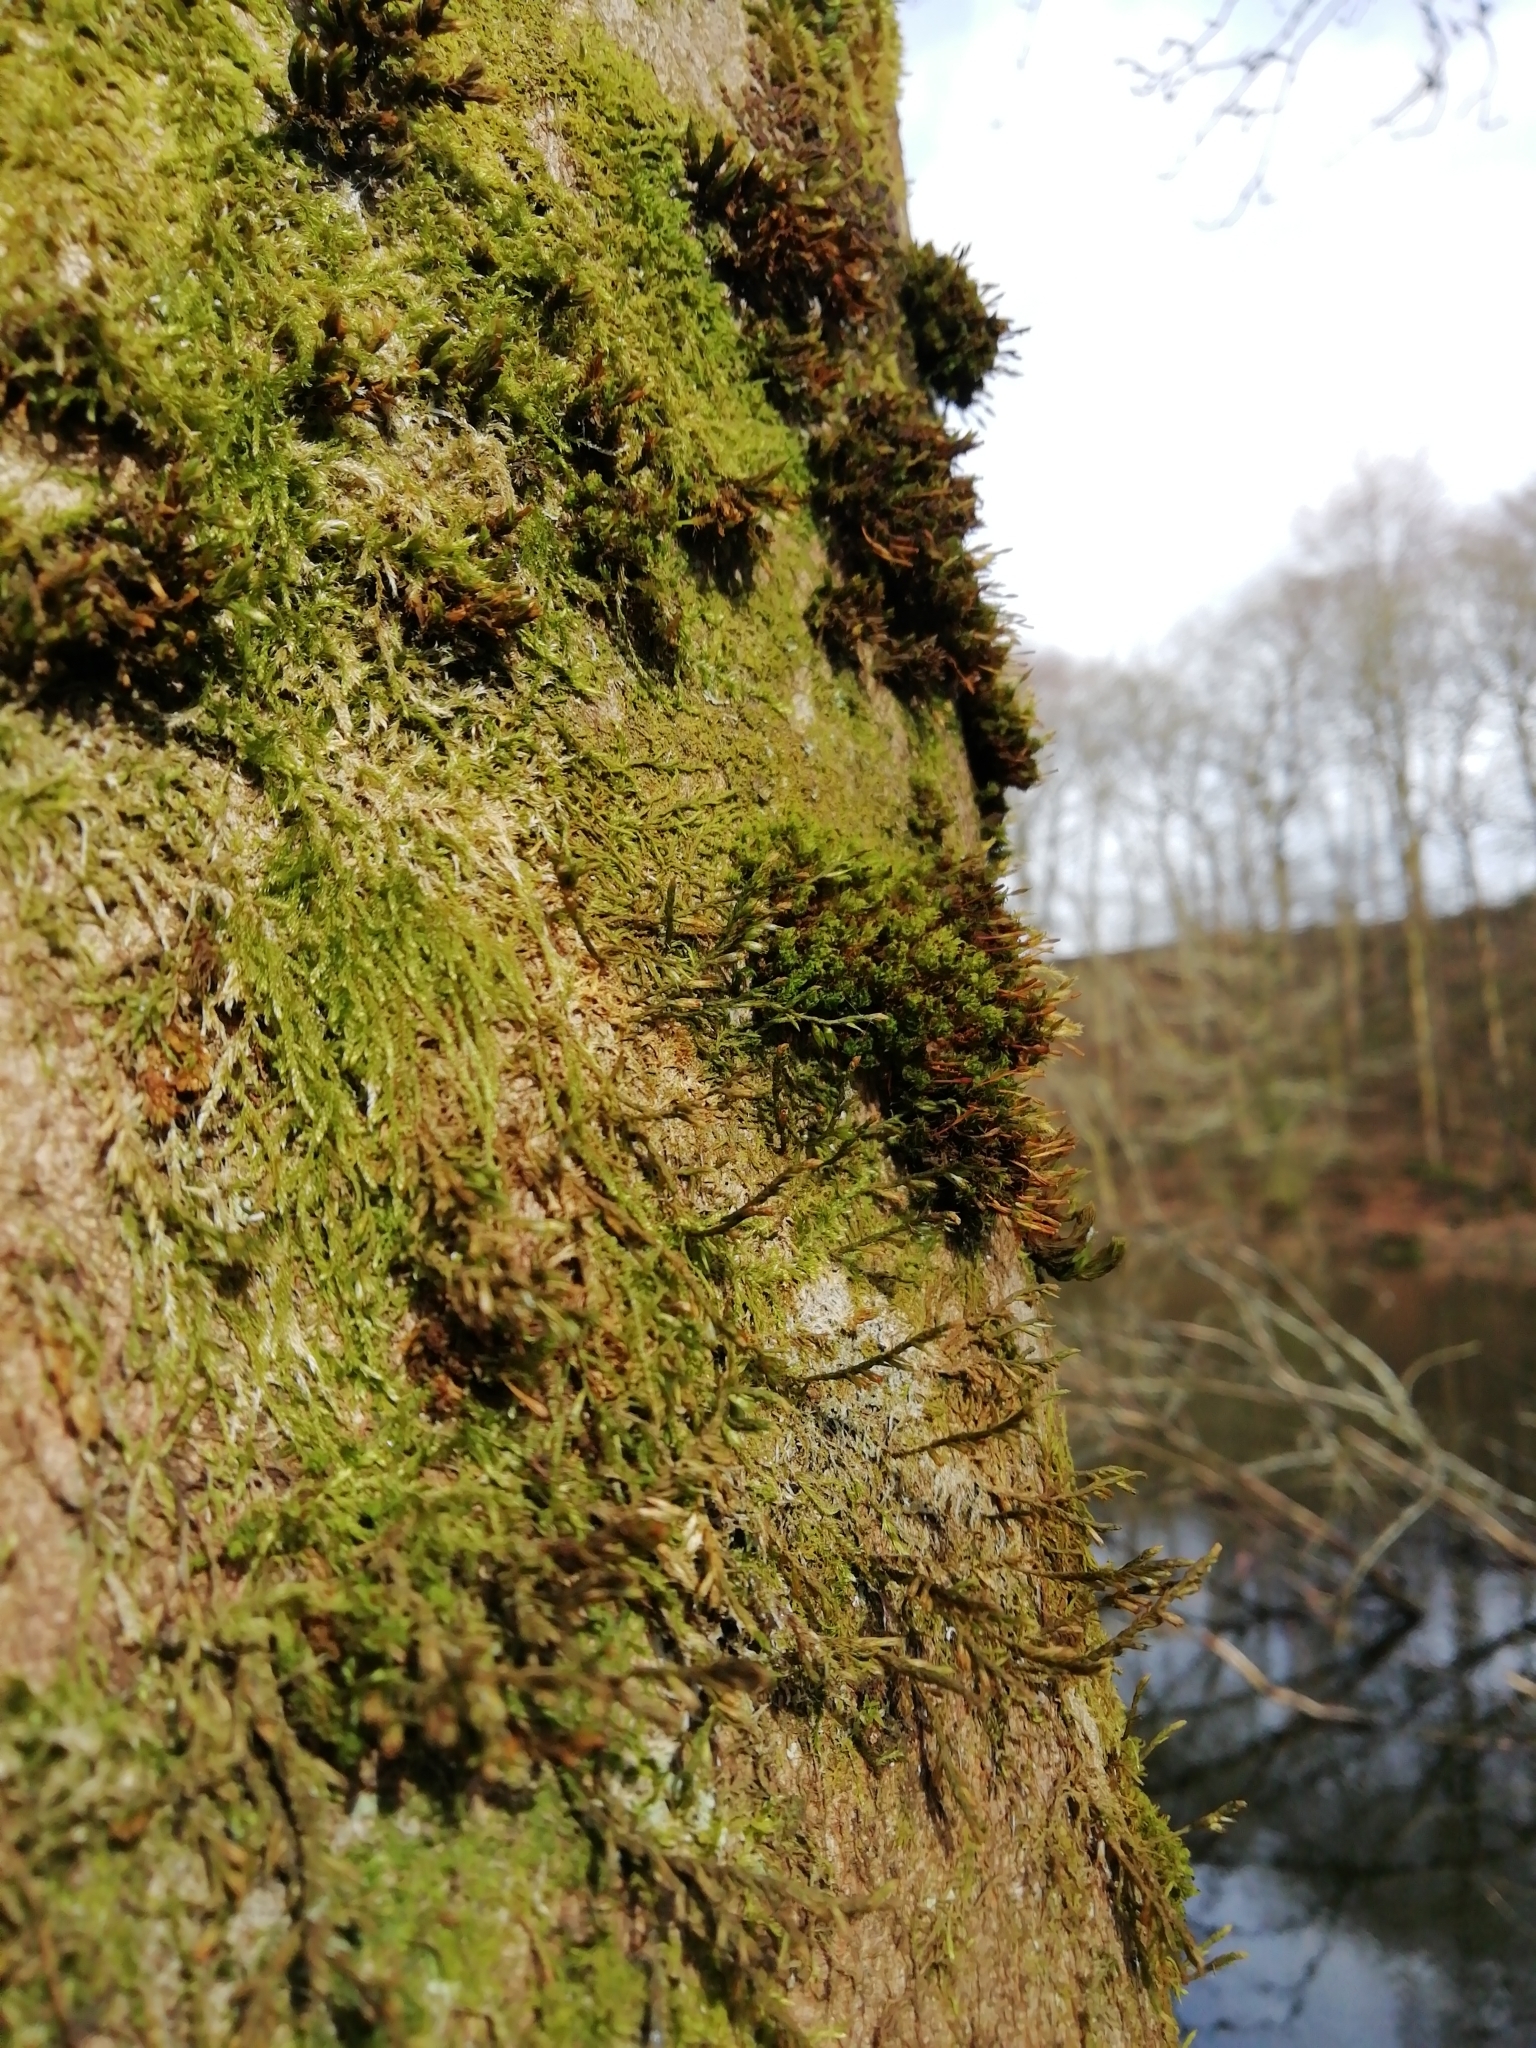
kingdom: Plantae
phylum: Bryophyta
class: Bryopsida
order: Hypnales
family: Cryphaeaceae
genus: Cryphaea
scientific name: Cryphaea heteromalla
